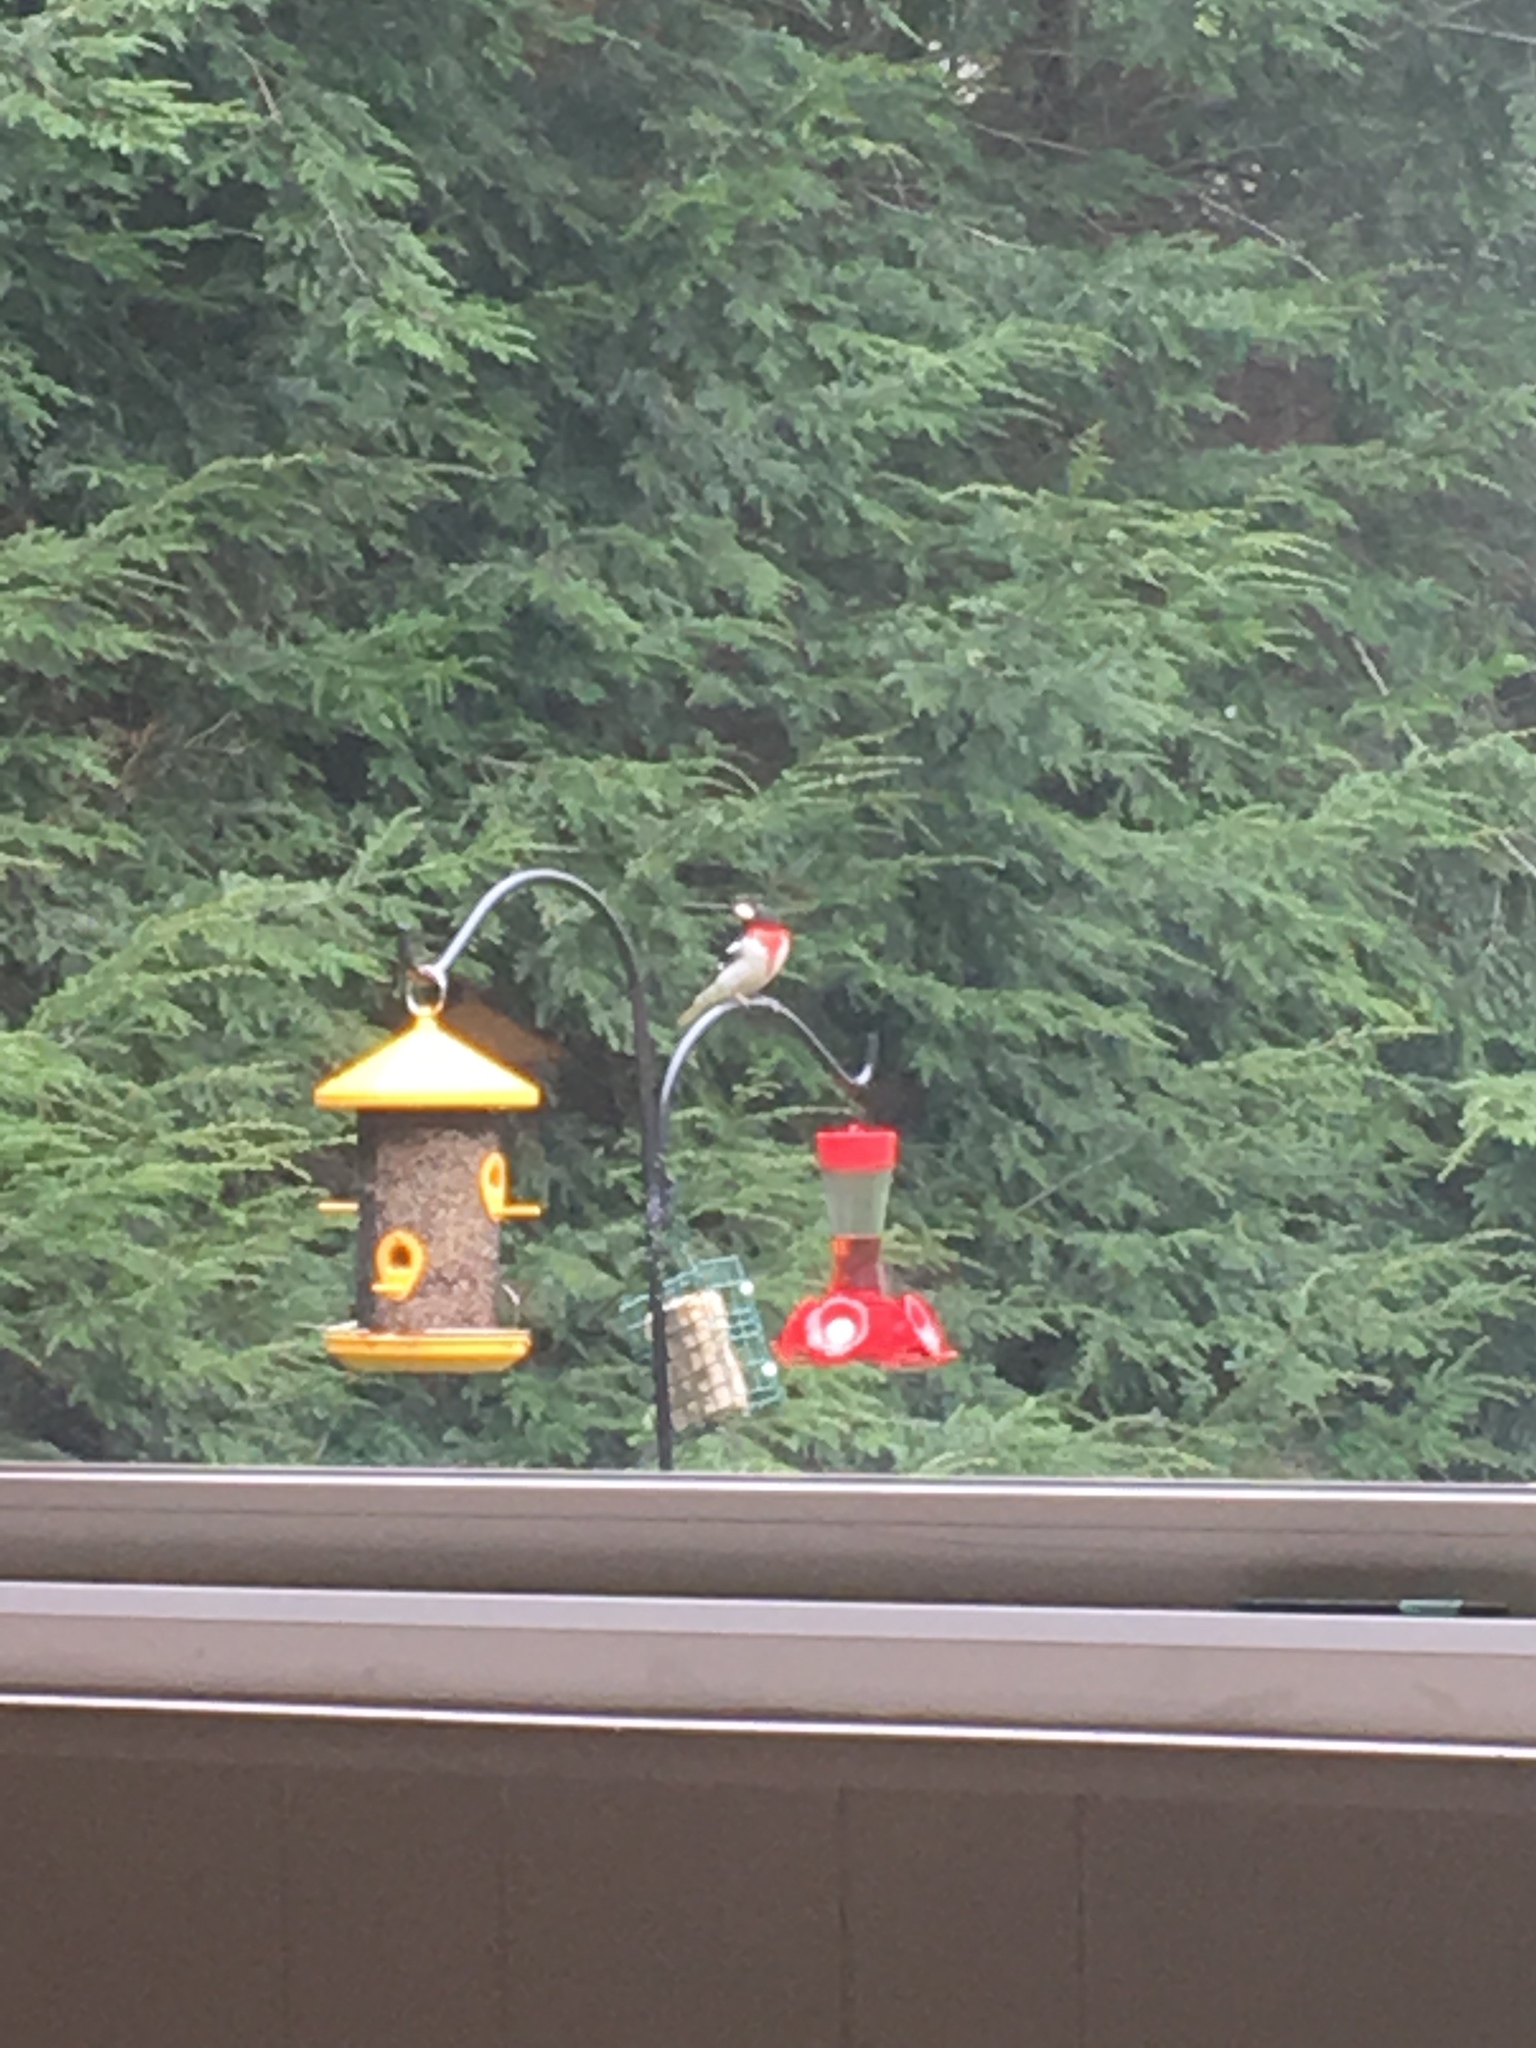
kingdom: Animalia
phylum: Chordata
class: Aves
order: Passeriformes
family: Cardinalidae
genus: Pheucticus
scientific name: Pheucticus ludovicianus
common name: Rose-breasted grosbeak
